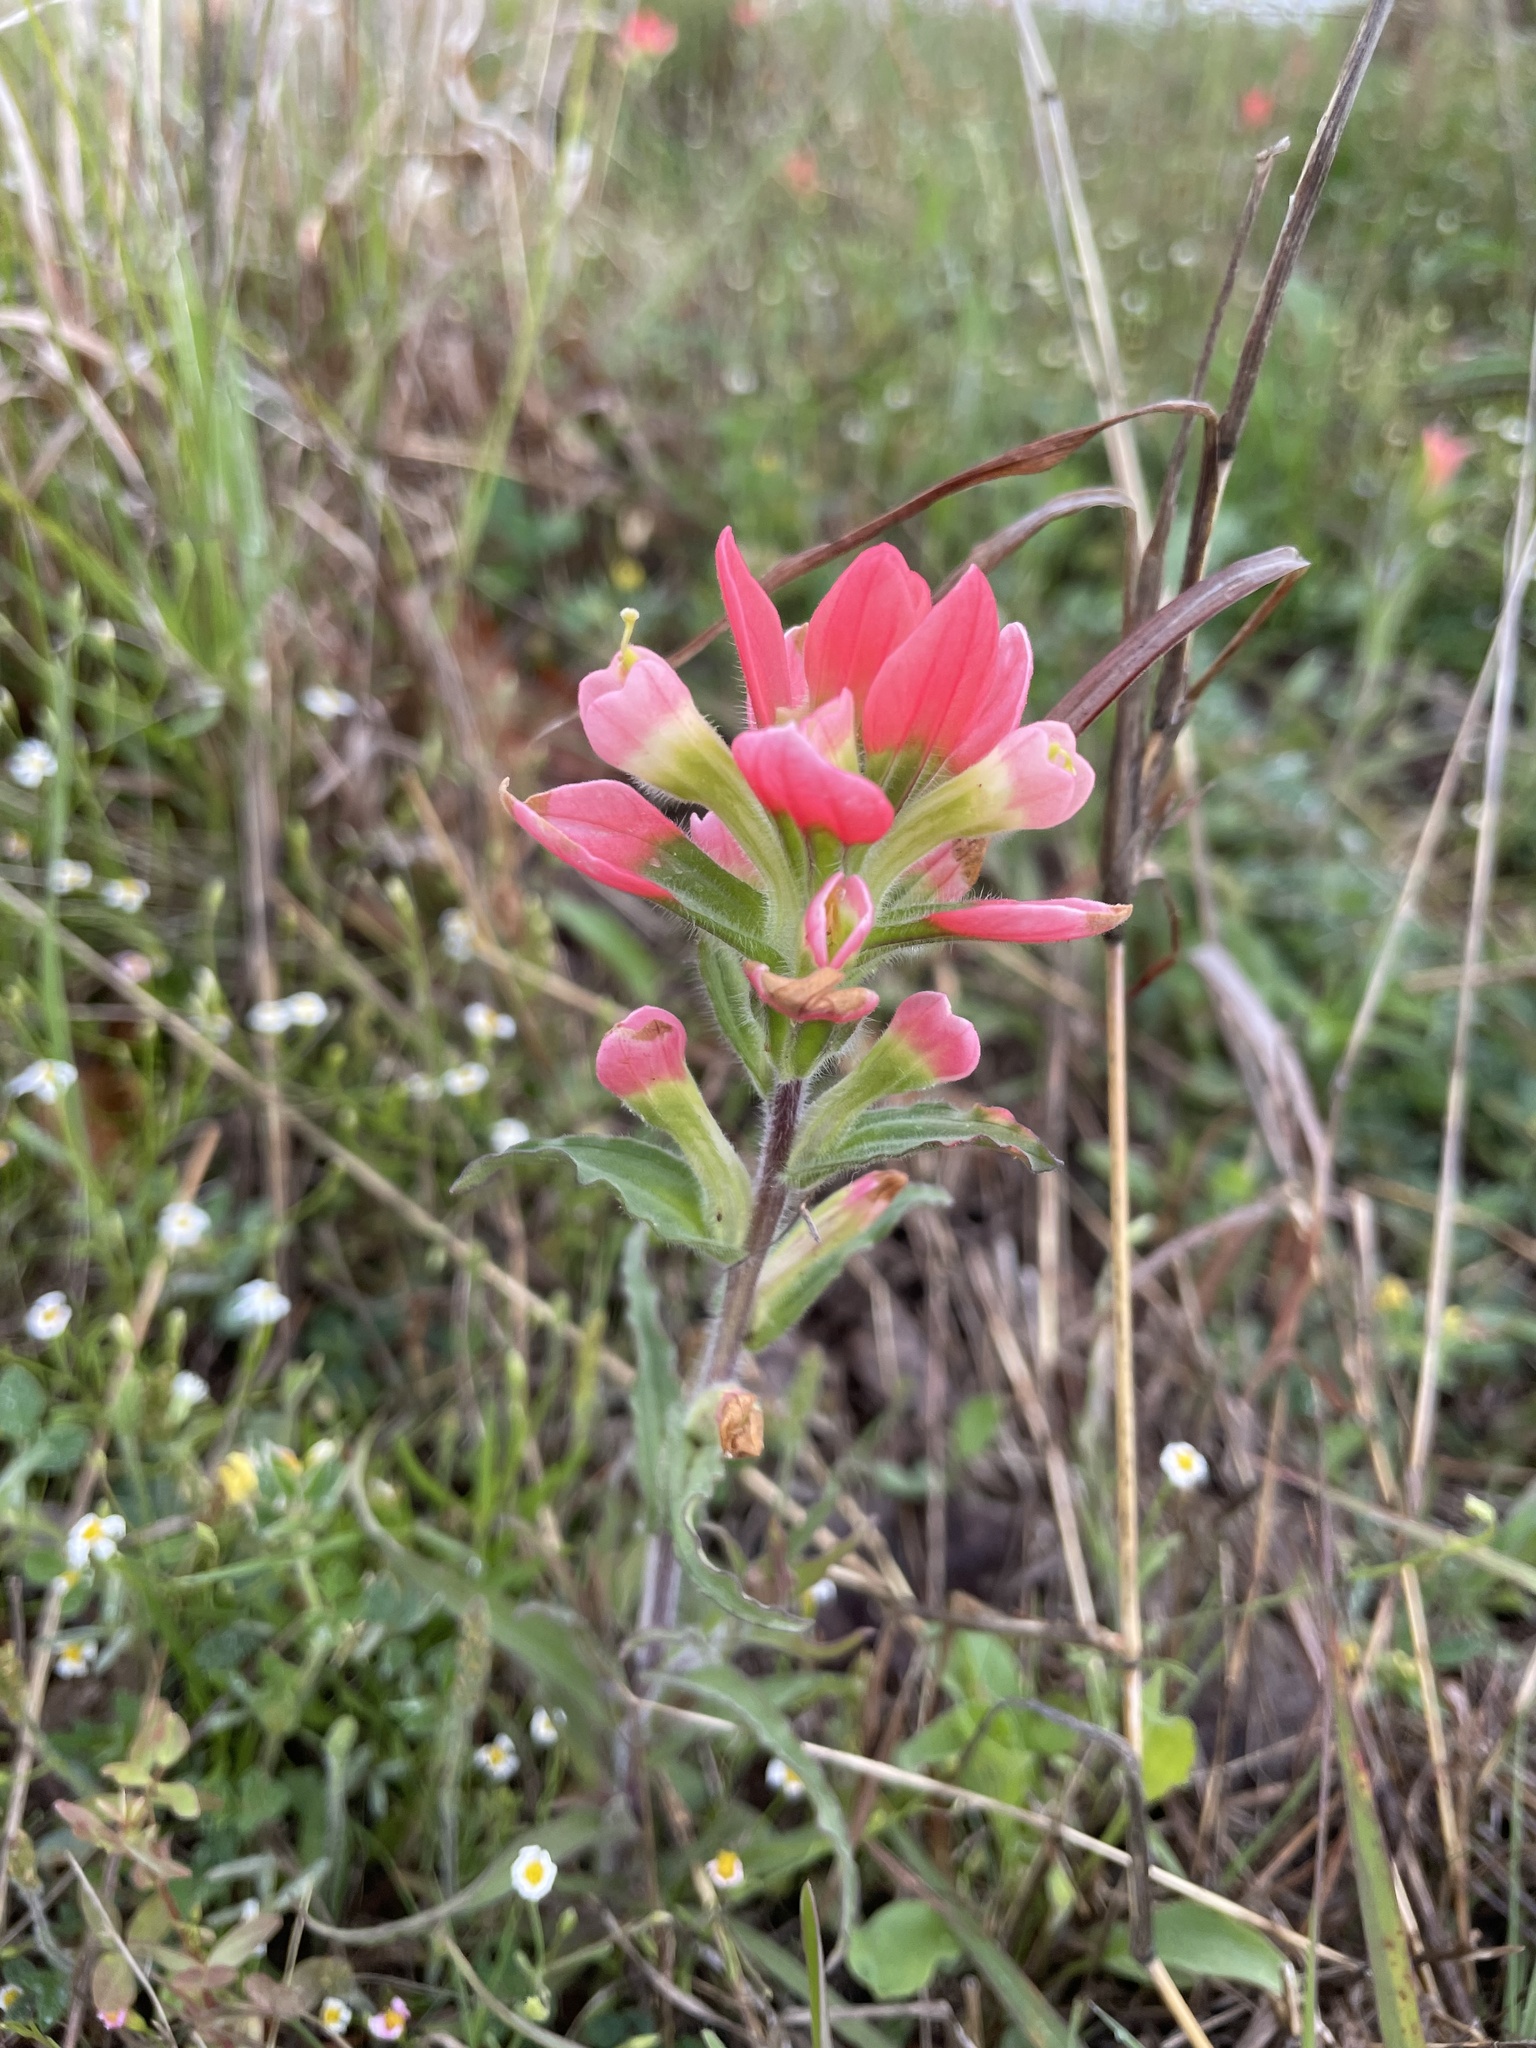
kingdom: Plantae
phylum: Tracheophyta
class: Magnoliopsida
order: Lamiales
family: Orobanchaceae
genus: Castilleja
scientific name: Castilleja indivisa
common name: Texas paintbrush
